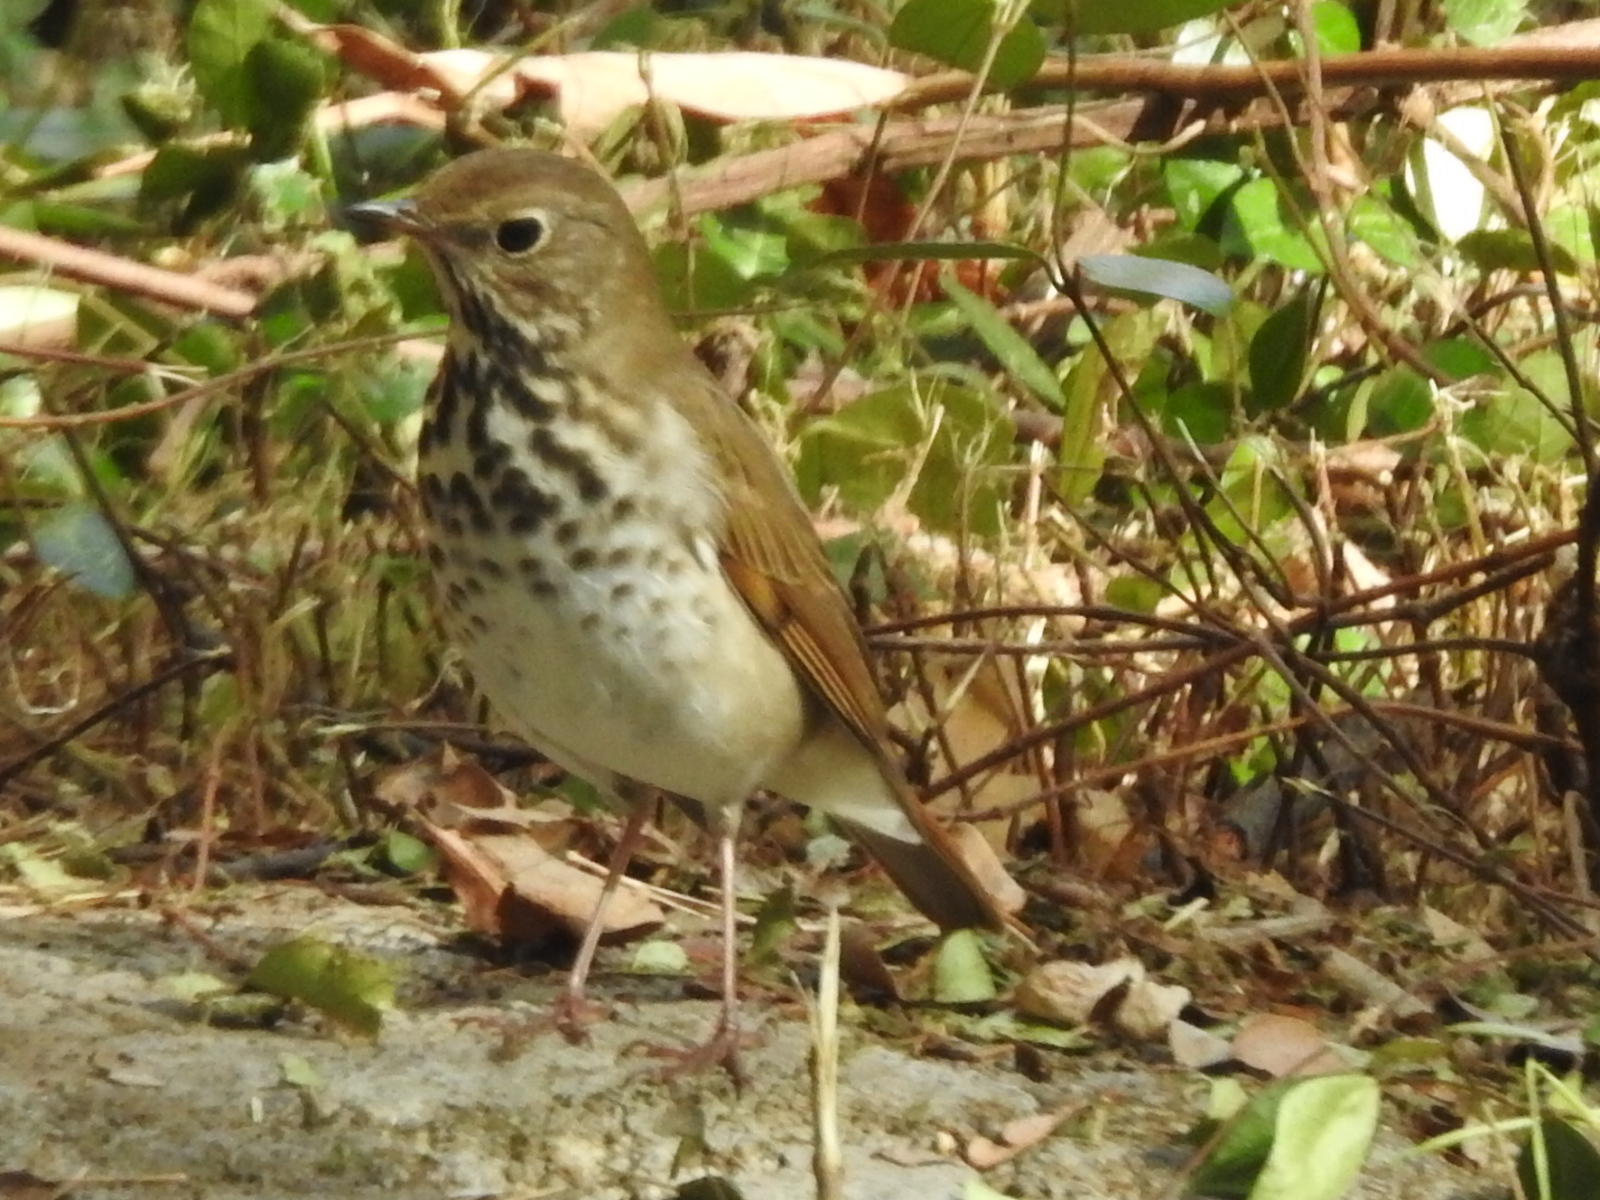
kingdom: Animalia
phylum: Chordata
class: Aves
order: Passeriformes
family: Turdidae
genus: Catharus
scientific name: Catharus guttatus
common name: Hermit thrush
